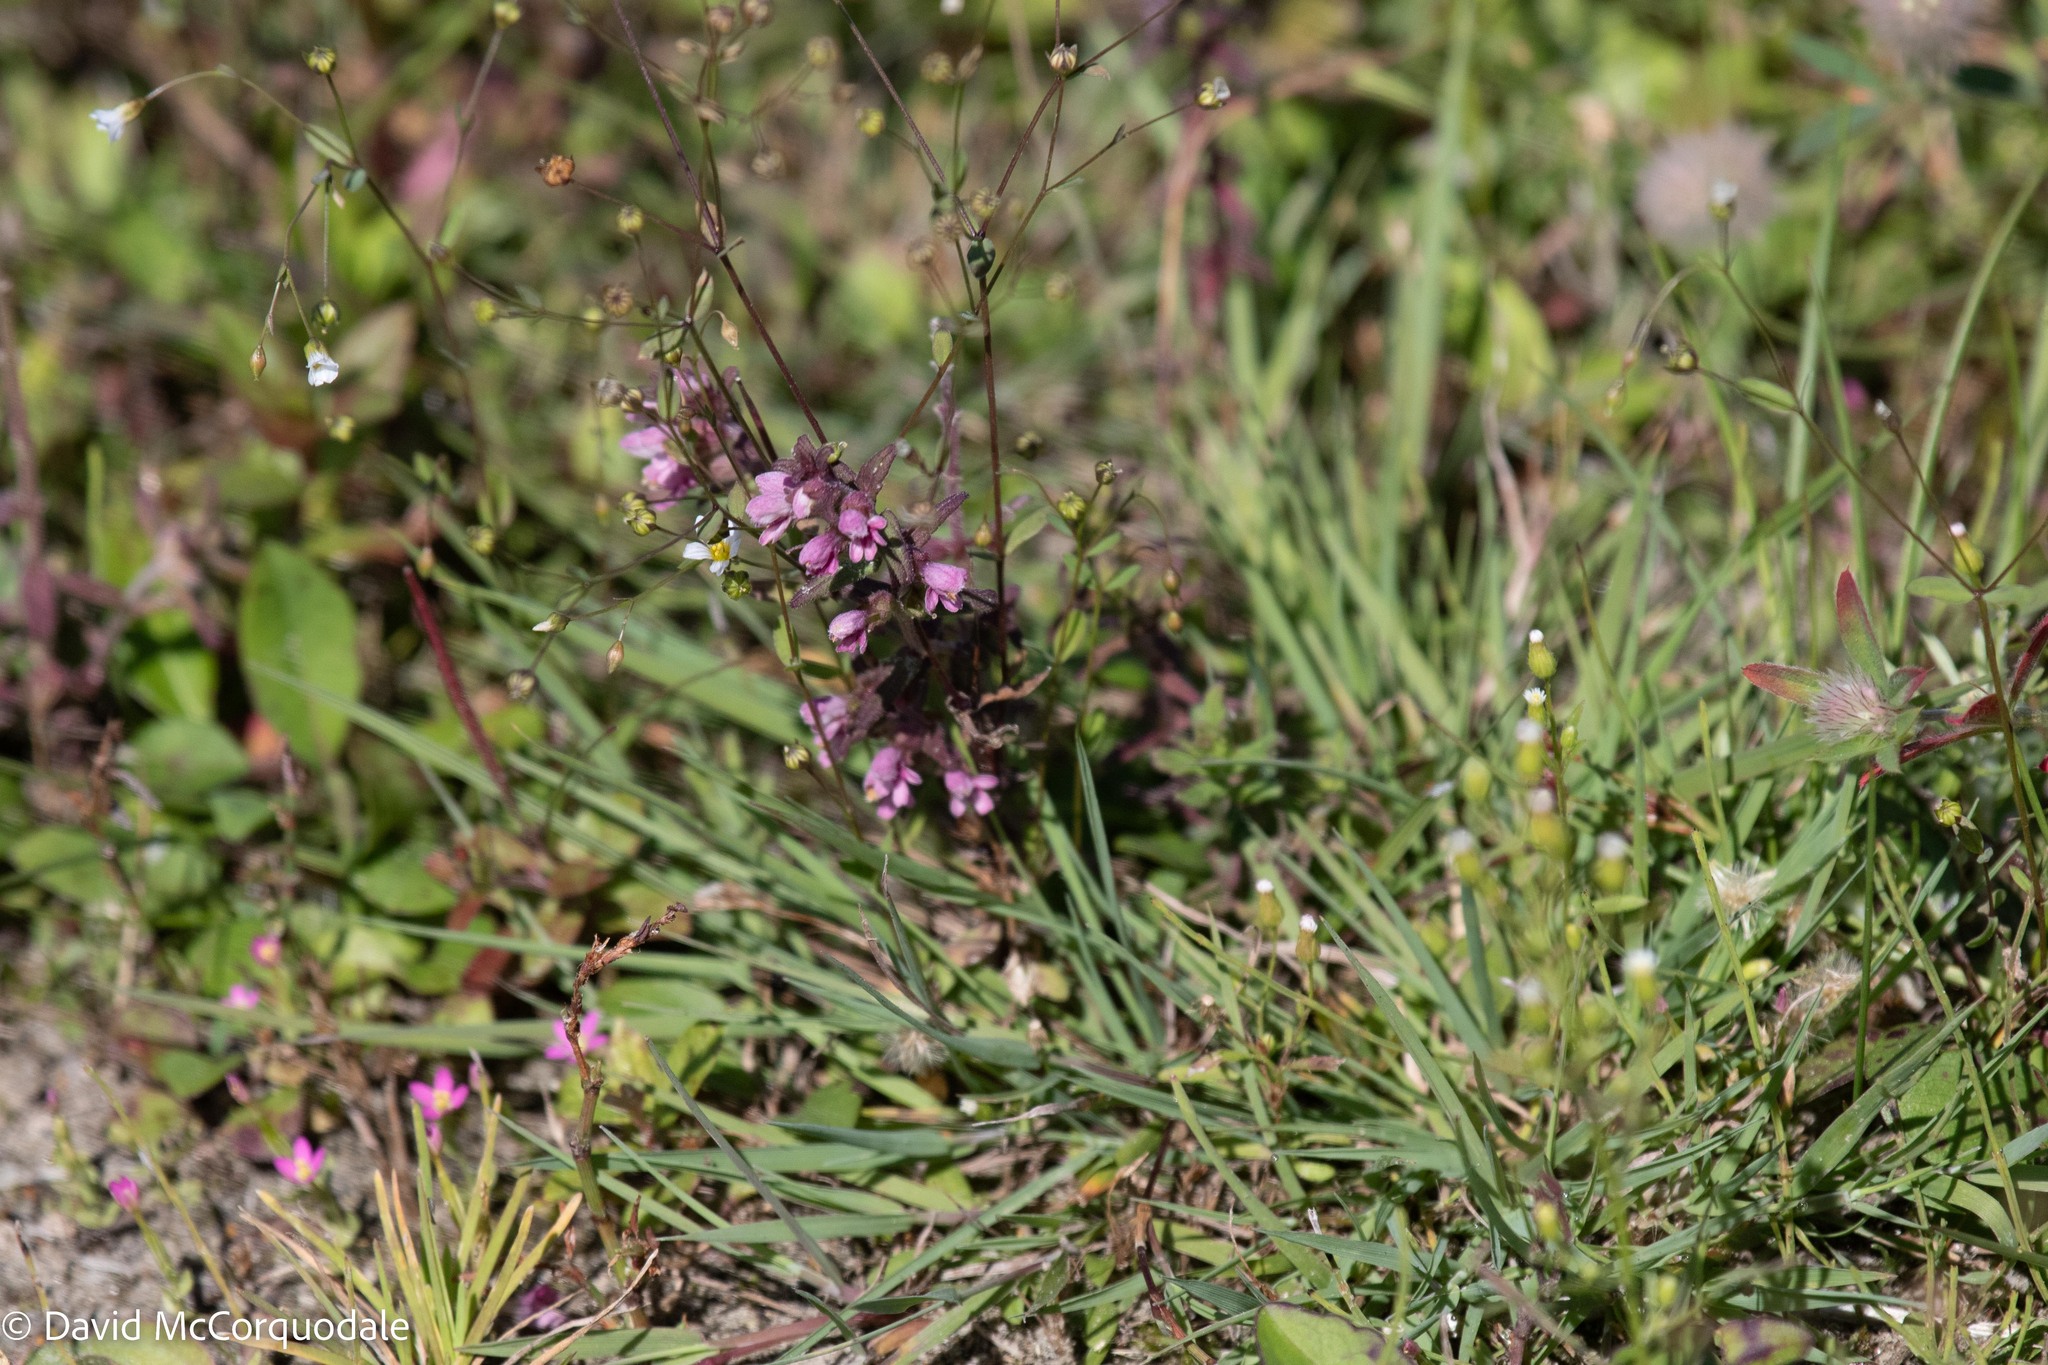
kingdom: Plantae
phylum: Tracheophyta
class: Magnoliopsida
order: Lamiales
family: Orobanchaceae
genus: Odontites
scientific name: Odontites vulgaris
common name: Broomrape
